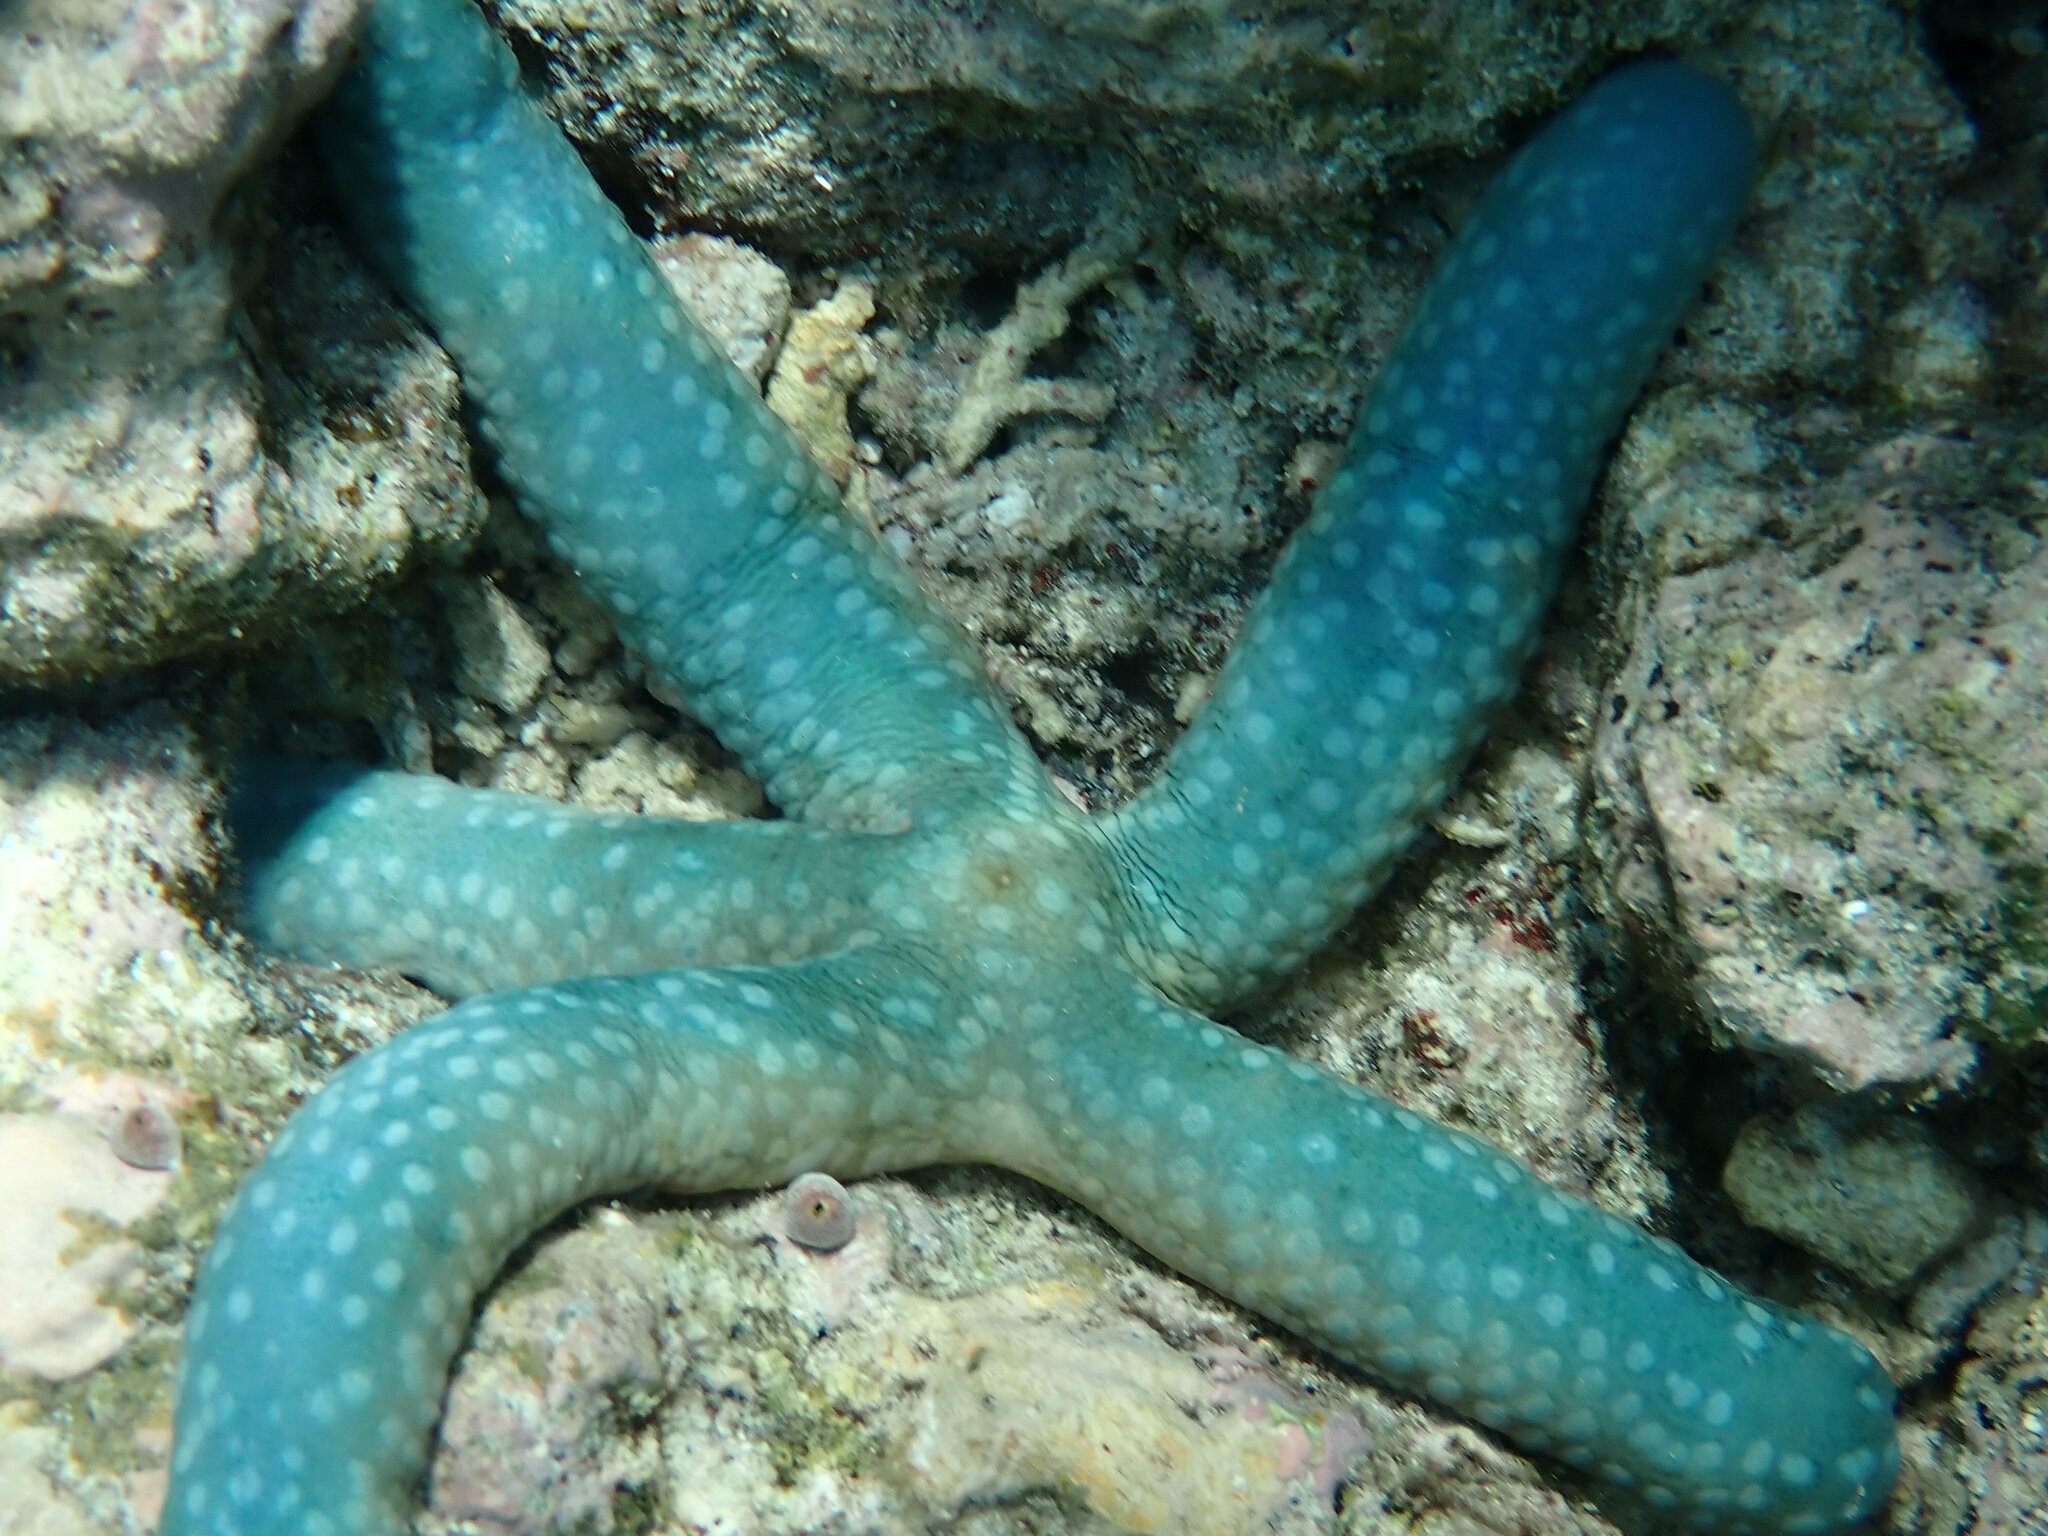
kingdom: Animalia
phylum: Echinodermata
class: Asteroidea
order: Valvatida
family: Ophidiasteridae
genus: Linckia
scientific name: Linckia laevigata
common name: Azure sea star
